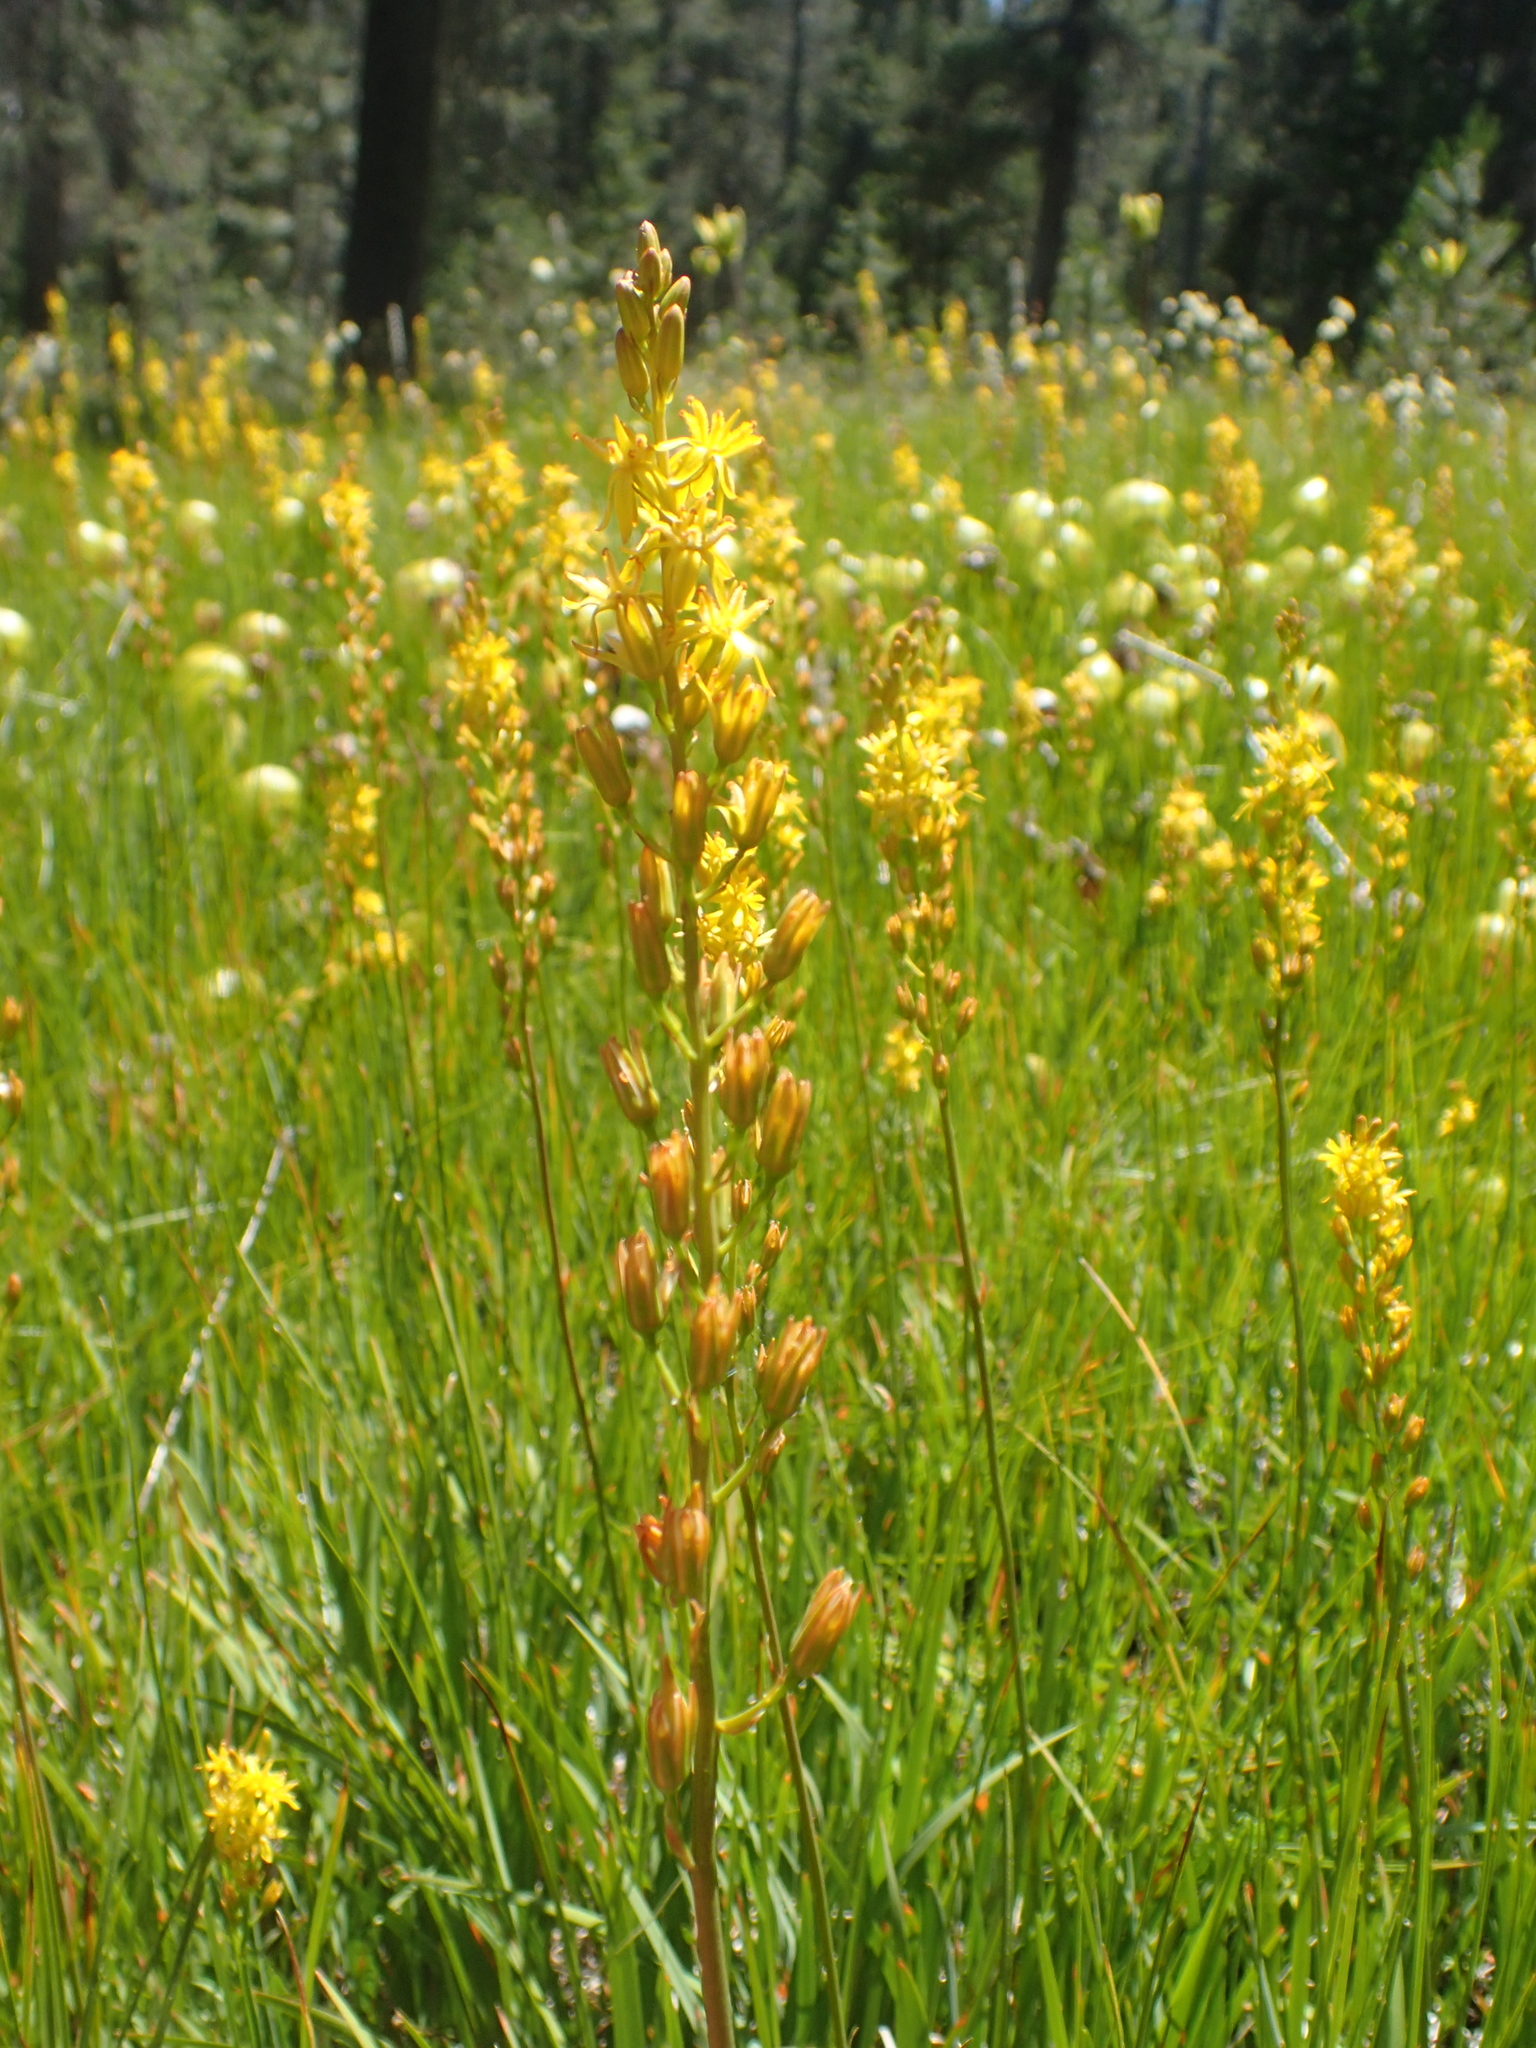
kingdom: Plantae
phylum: Tracheophyta
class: Liliopsida
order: Dioscoreales
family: Nartheciaceae
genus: Narthecium
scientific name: Narthecium californicum
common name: California bog-asphodel
